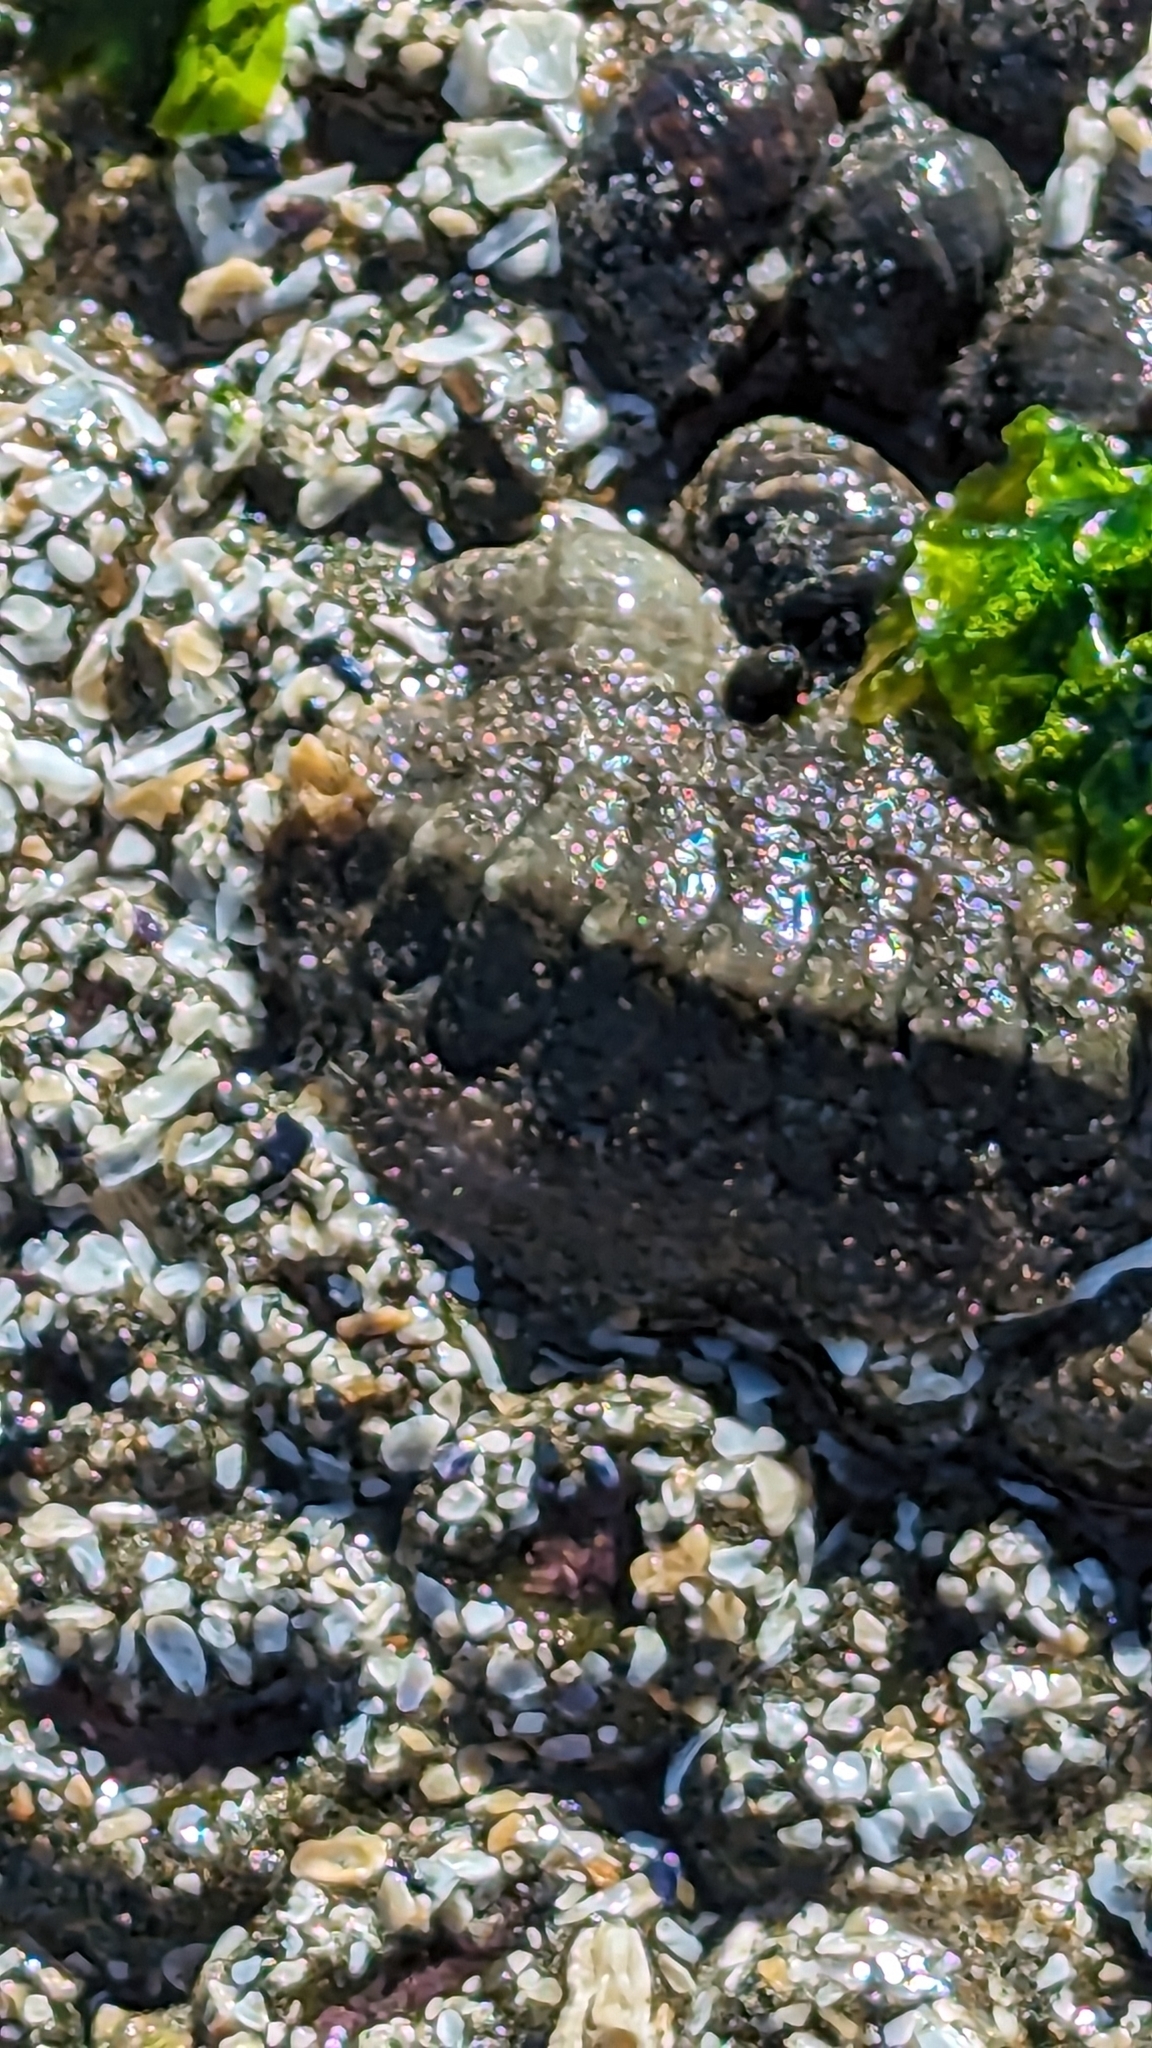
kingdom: Animalia
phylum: Mollusca
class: Polyplacophora
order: Chitonida
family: Mopaliidae
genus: Mopalia
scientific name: Mopalia hindsii
